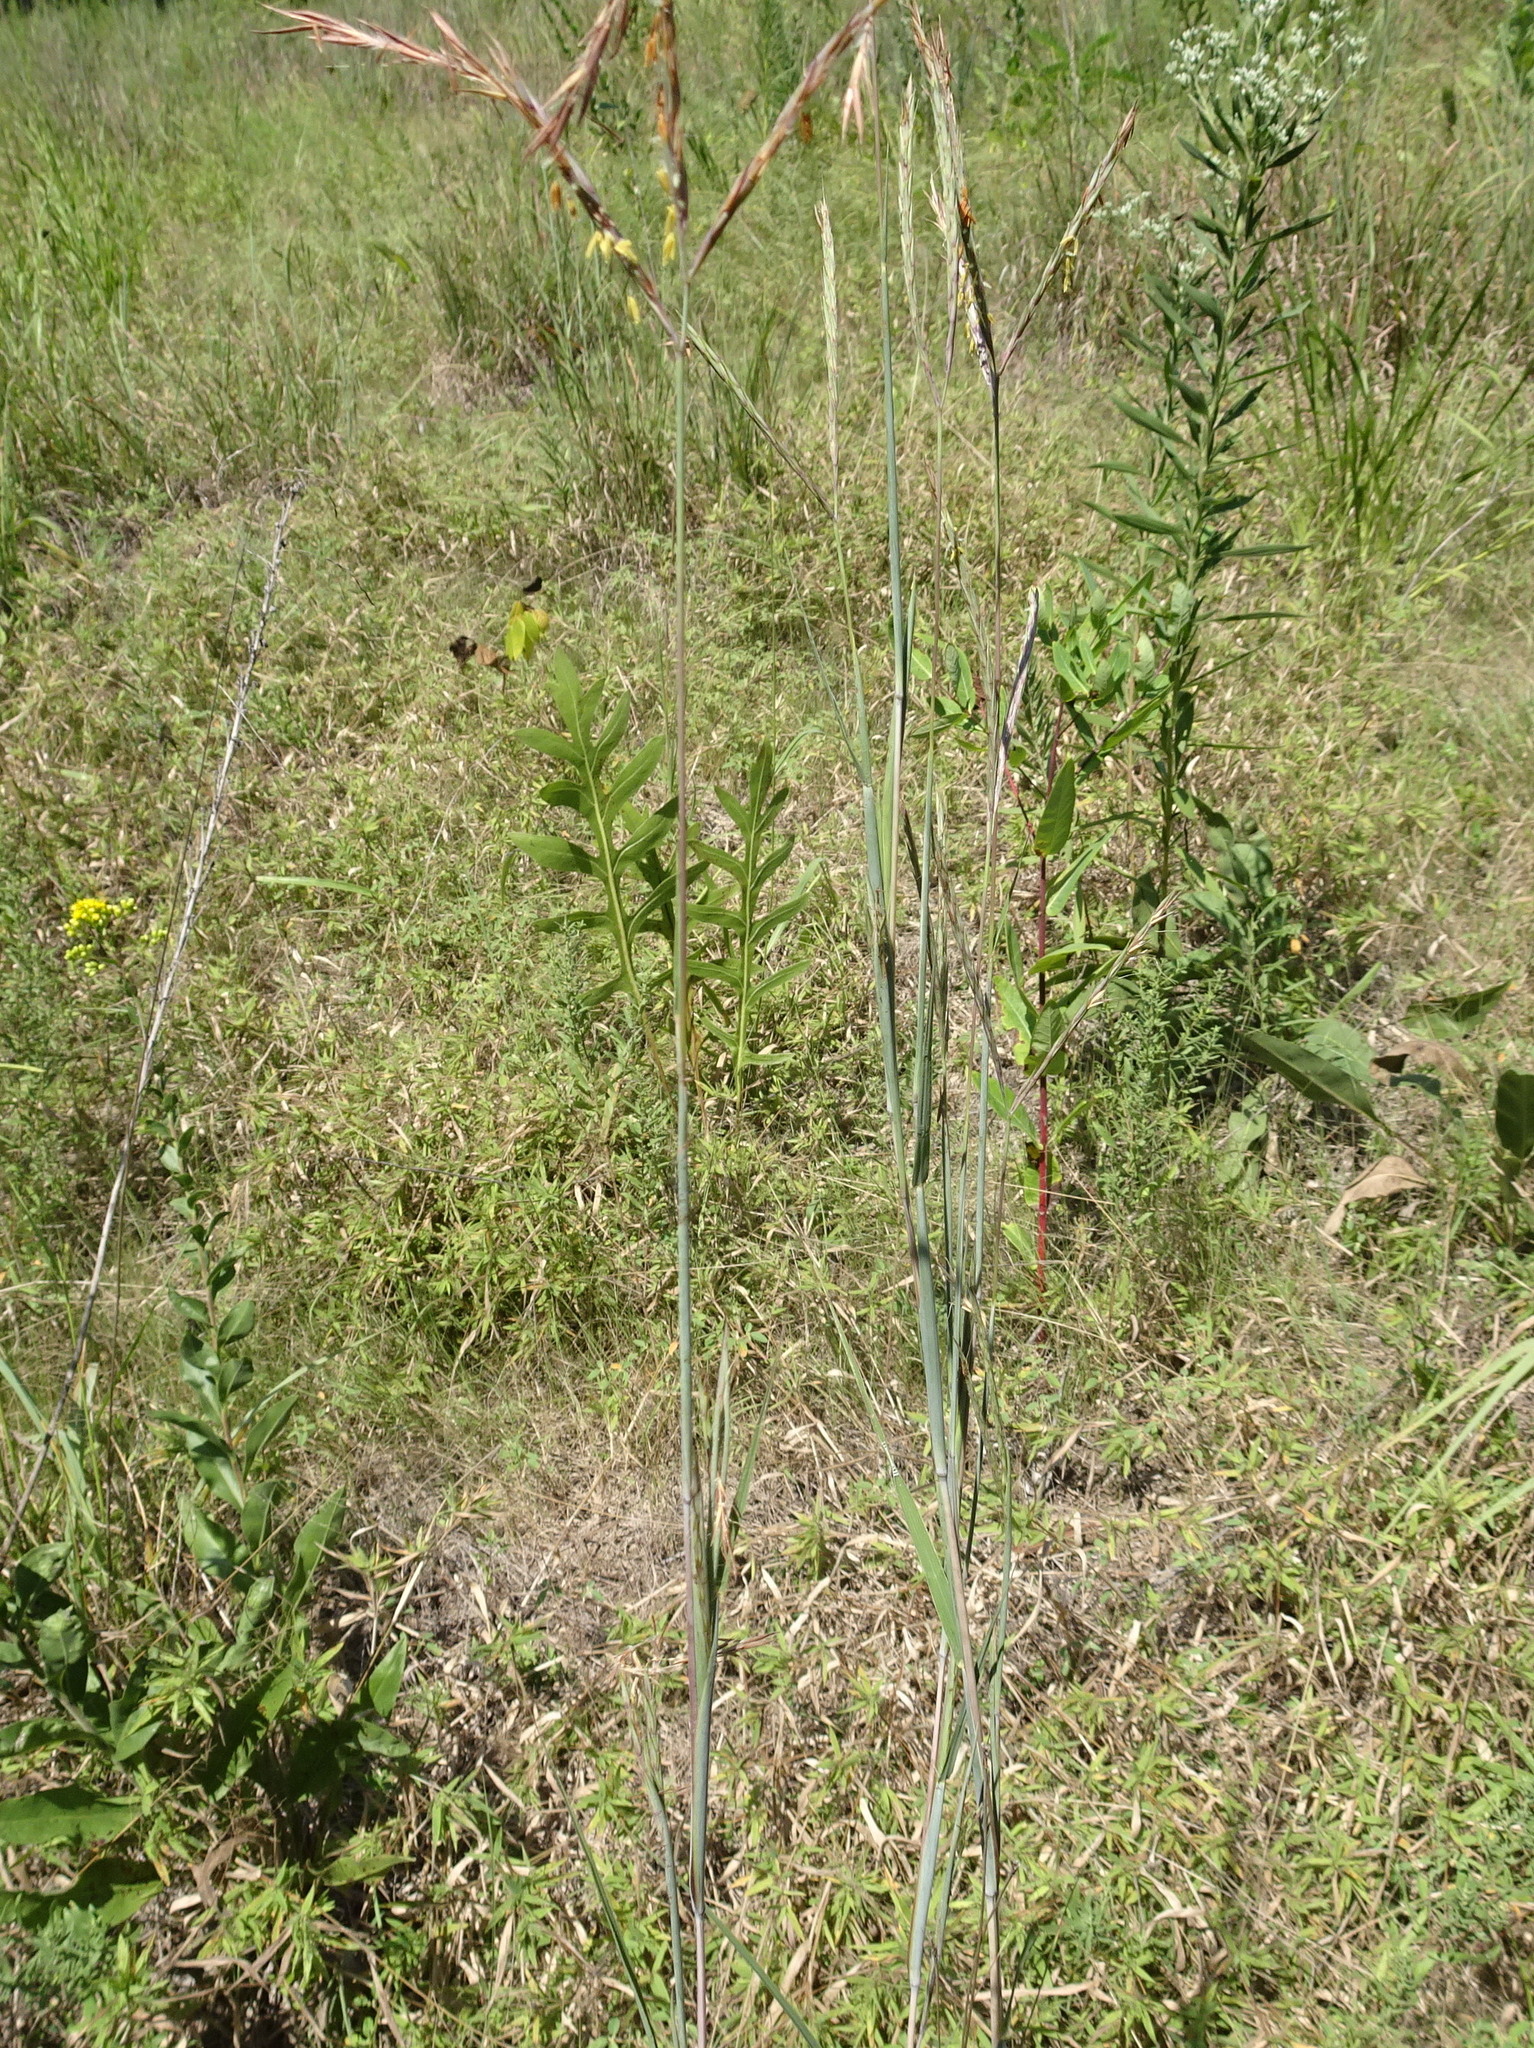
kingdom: Plantae
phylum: Tracheophyta
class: Liliopsida
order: Poales
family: Poaceae
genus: Andropogon
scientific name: Andropogon gerardi
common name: Big bluestem
